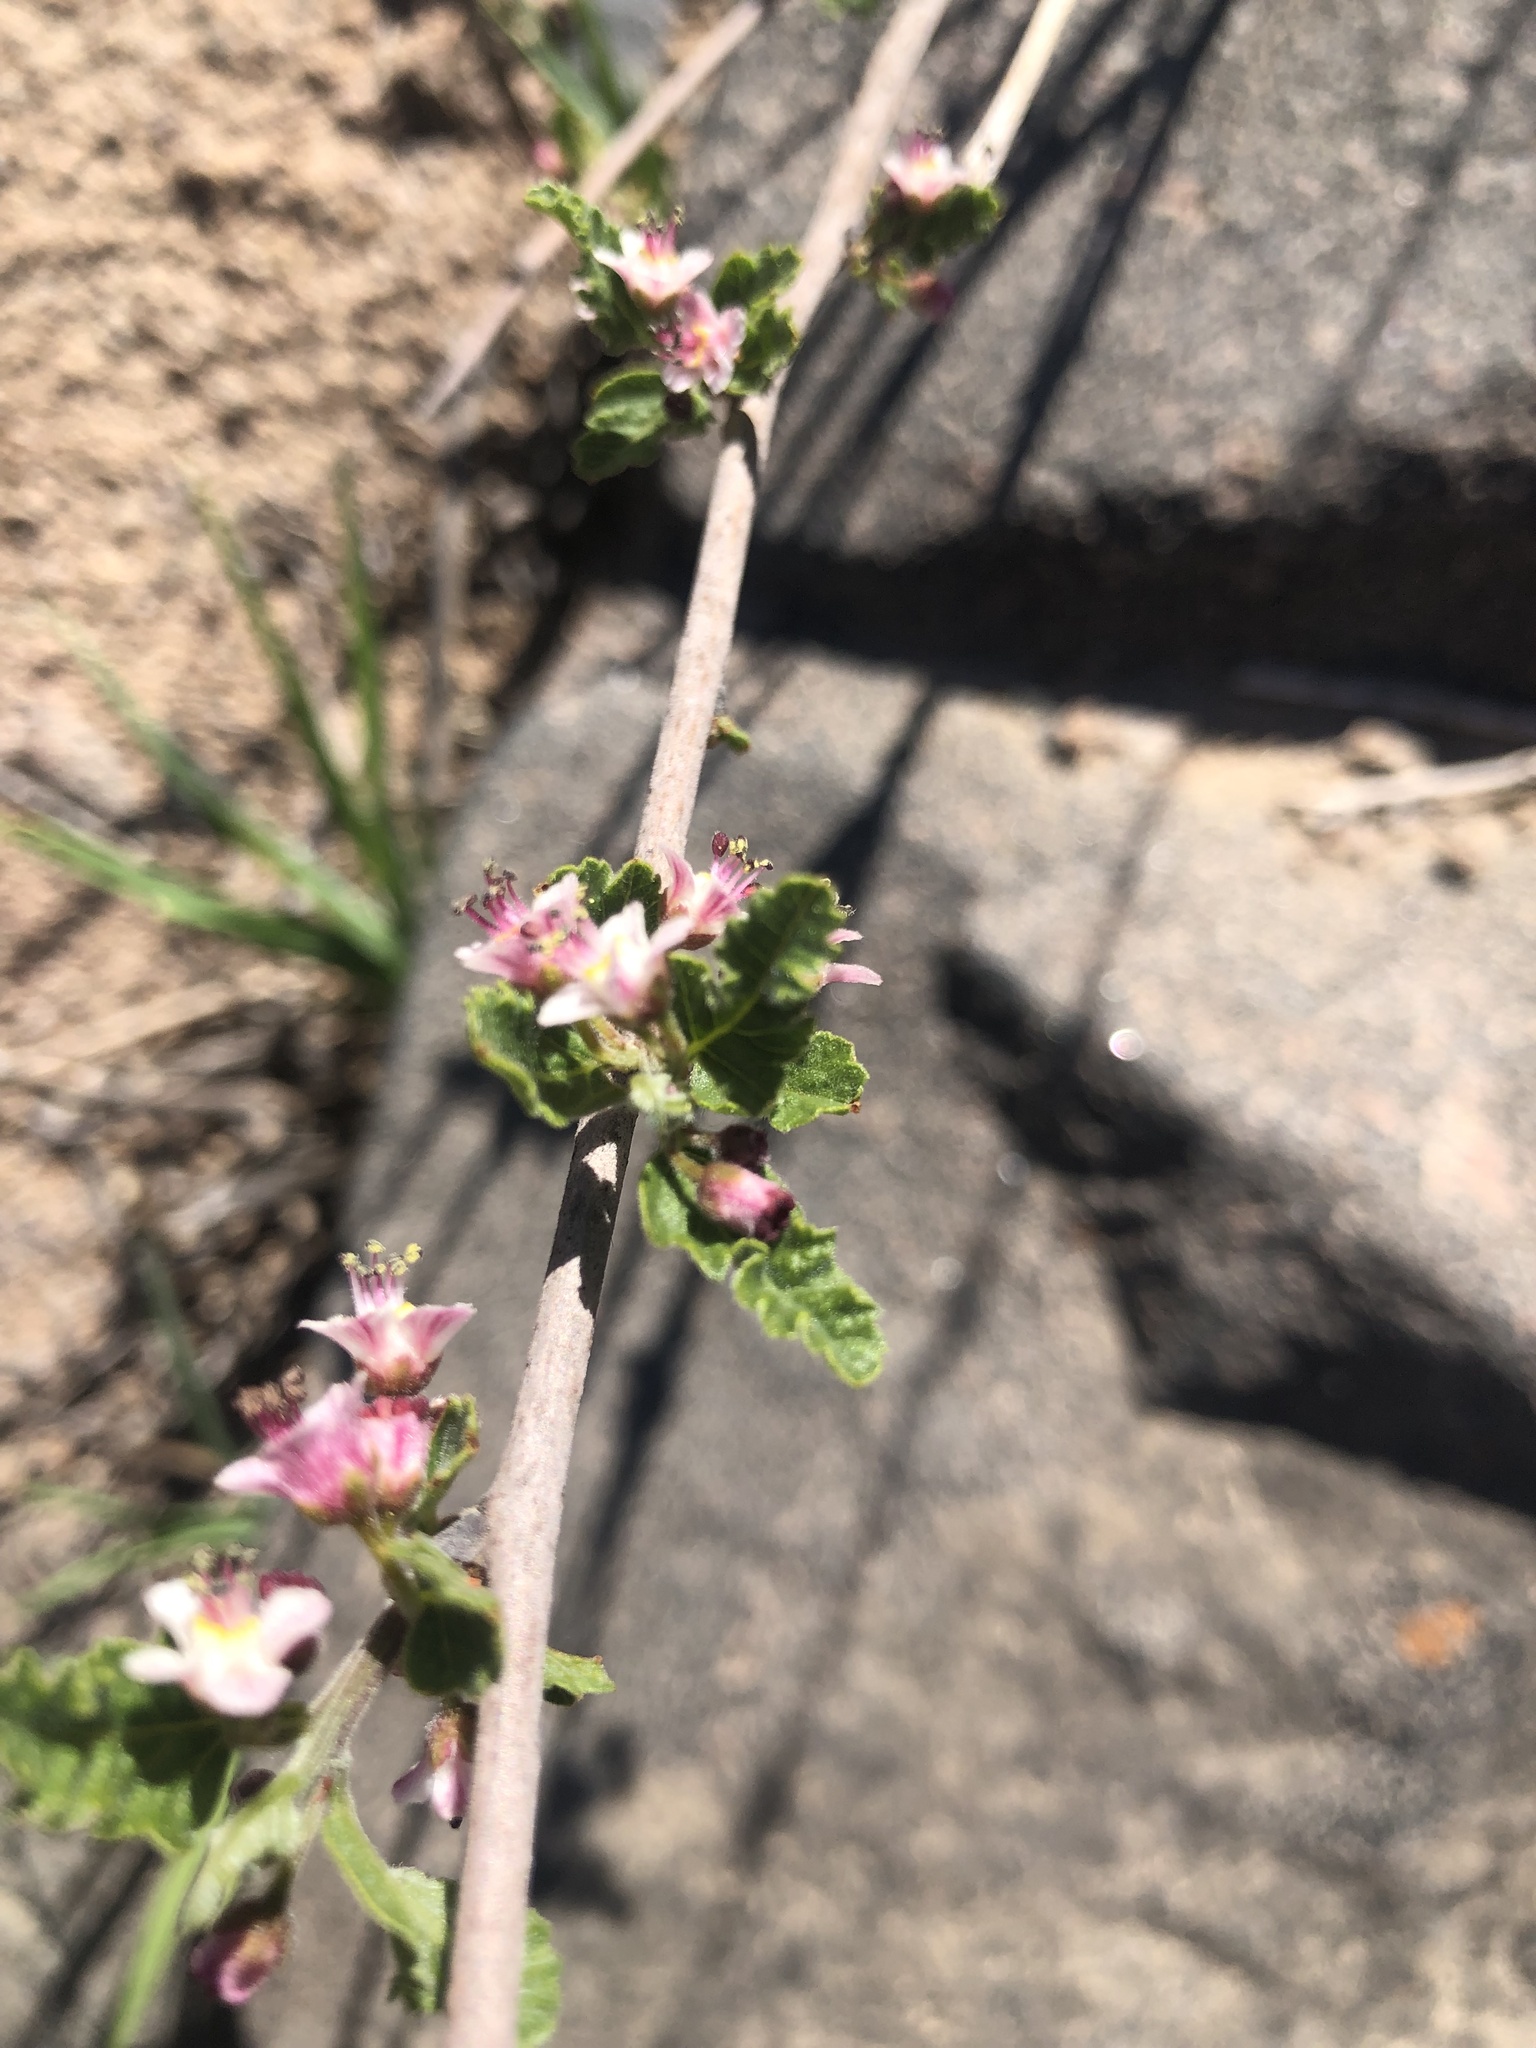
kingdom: Plantae
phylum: Tracheophyta
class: Magnoliopsida
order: Sapindales
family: Sapindaceae
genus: Bridgesia
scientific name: Bridgesia incisifolia
